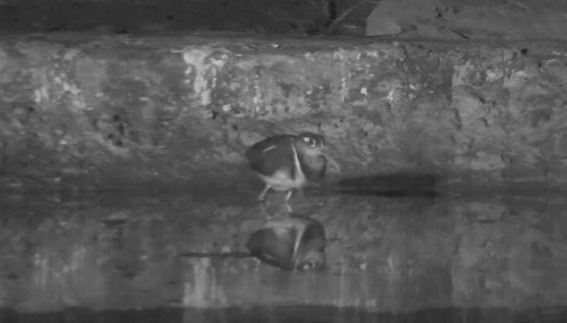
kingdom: Animalia
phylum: Chordata
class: Aves
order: Charadriiformes
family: Rostratulidae
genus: Rostratula
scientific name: Rostratula benghalensis
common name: Greater painted-snipe
